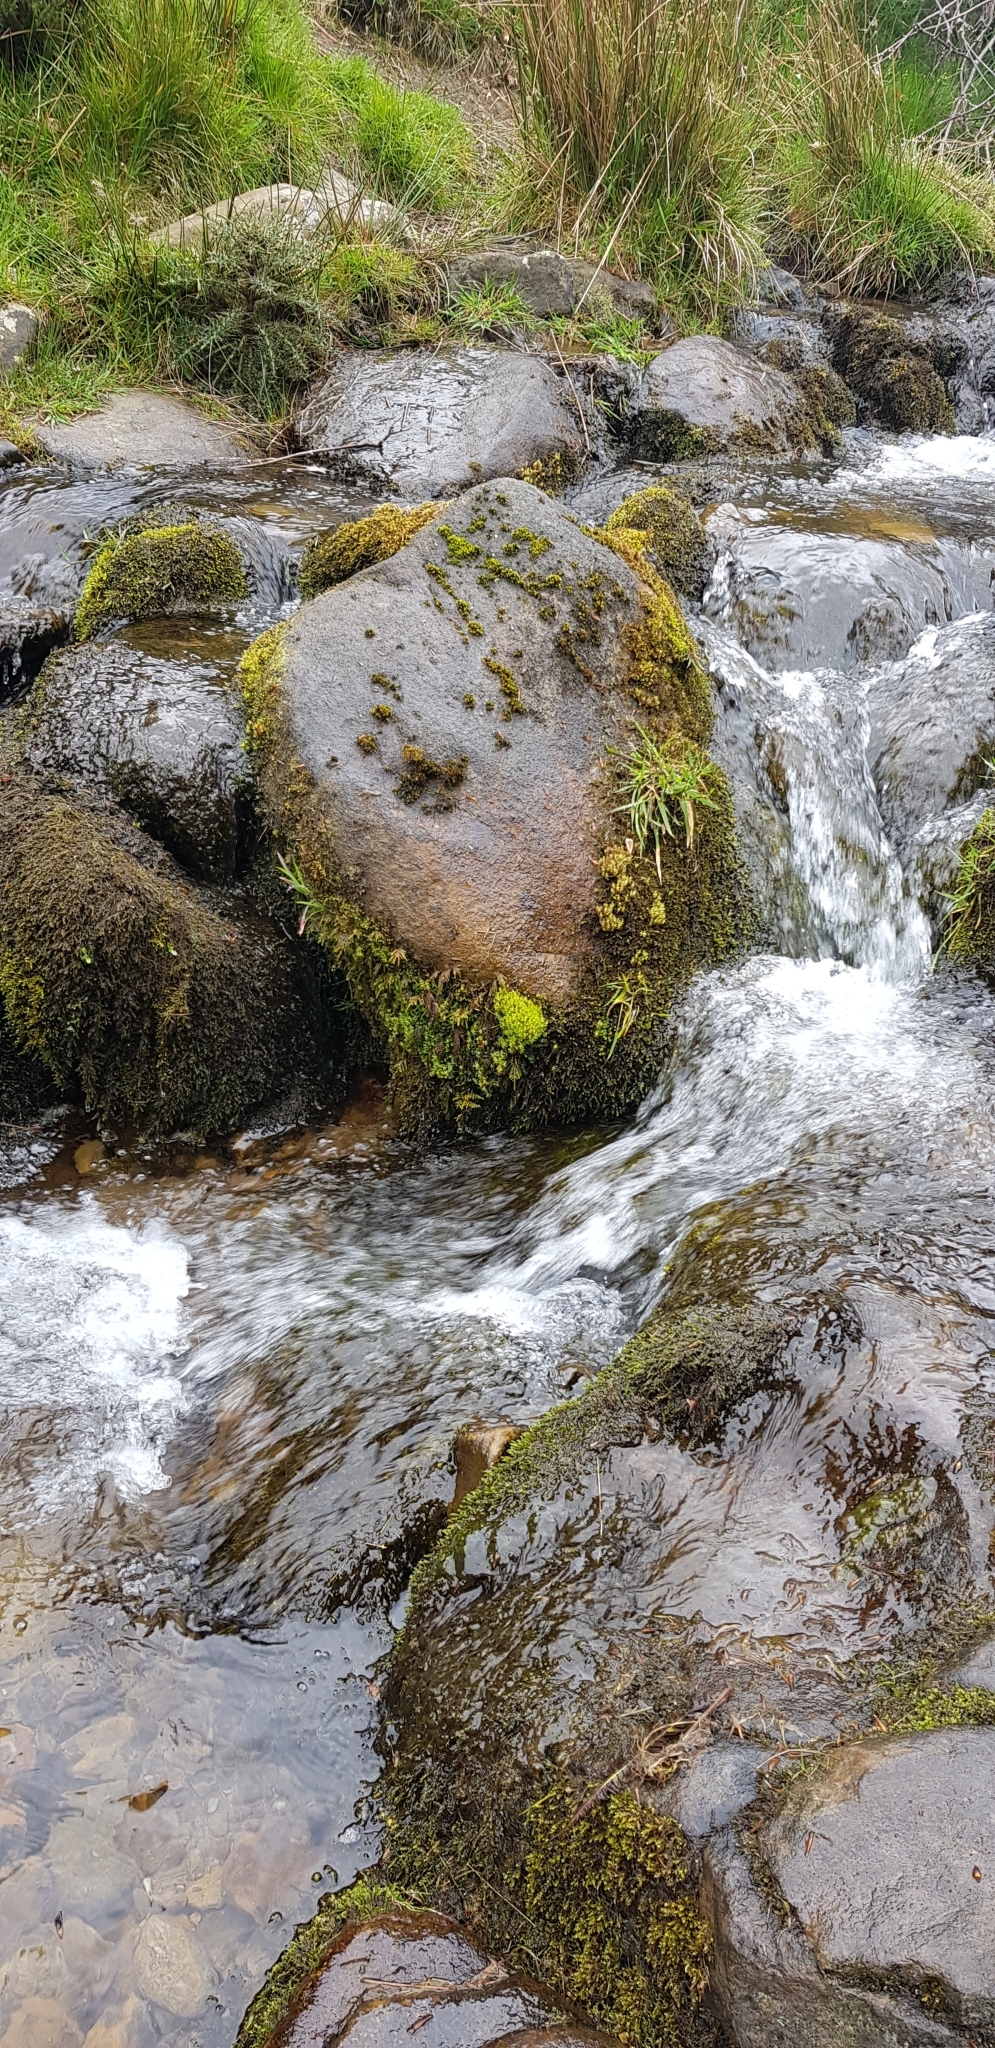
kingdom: Plantae
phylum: Bryophyta
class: Bryopsida
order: Bryales
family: Bryaceae
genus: Ptychostomum
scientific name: Ptychostomum pseudotriquetrum
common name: Long-leaved thread moss
